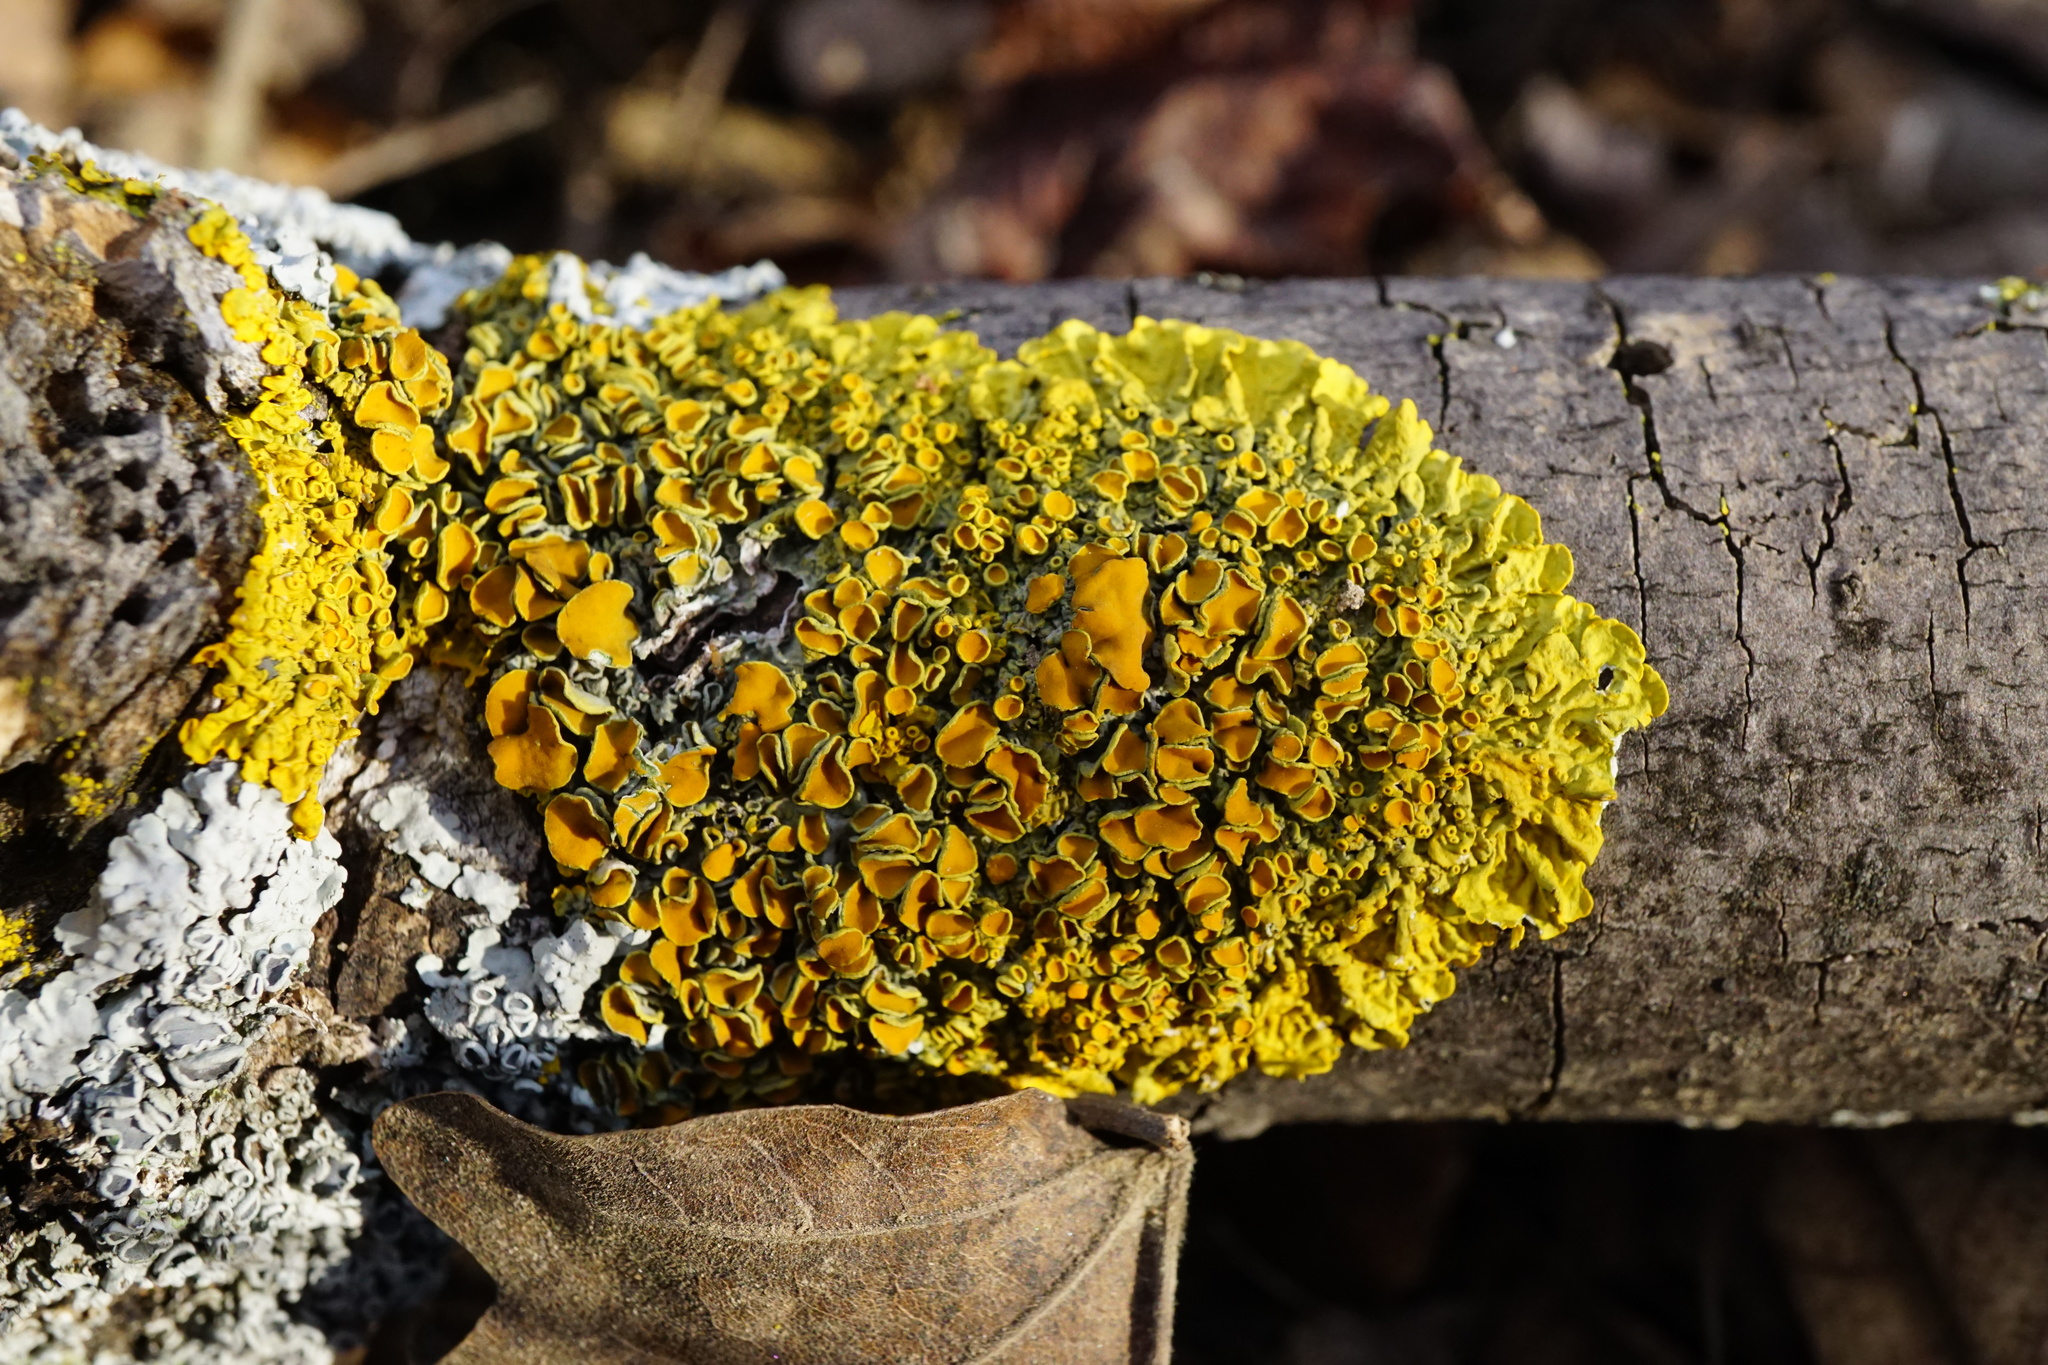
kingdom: Fungi
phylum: Ascomycota
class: Lecanoromycetes
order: Teloschistales
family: Teloschistaceae
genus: Xanthoria
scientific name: Xanthoria parietina
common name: Common orange lichen
